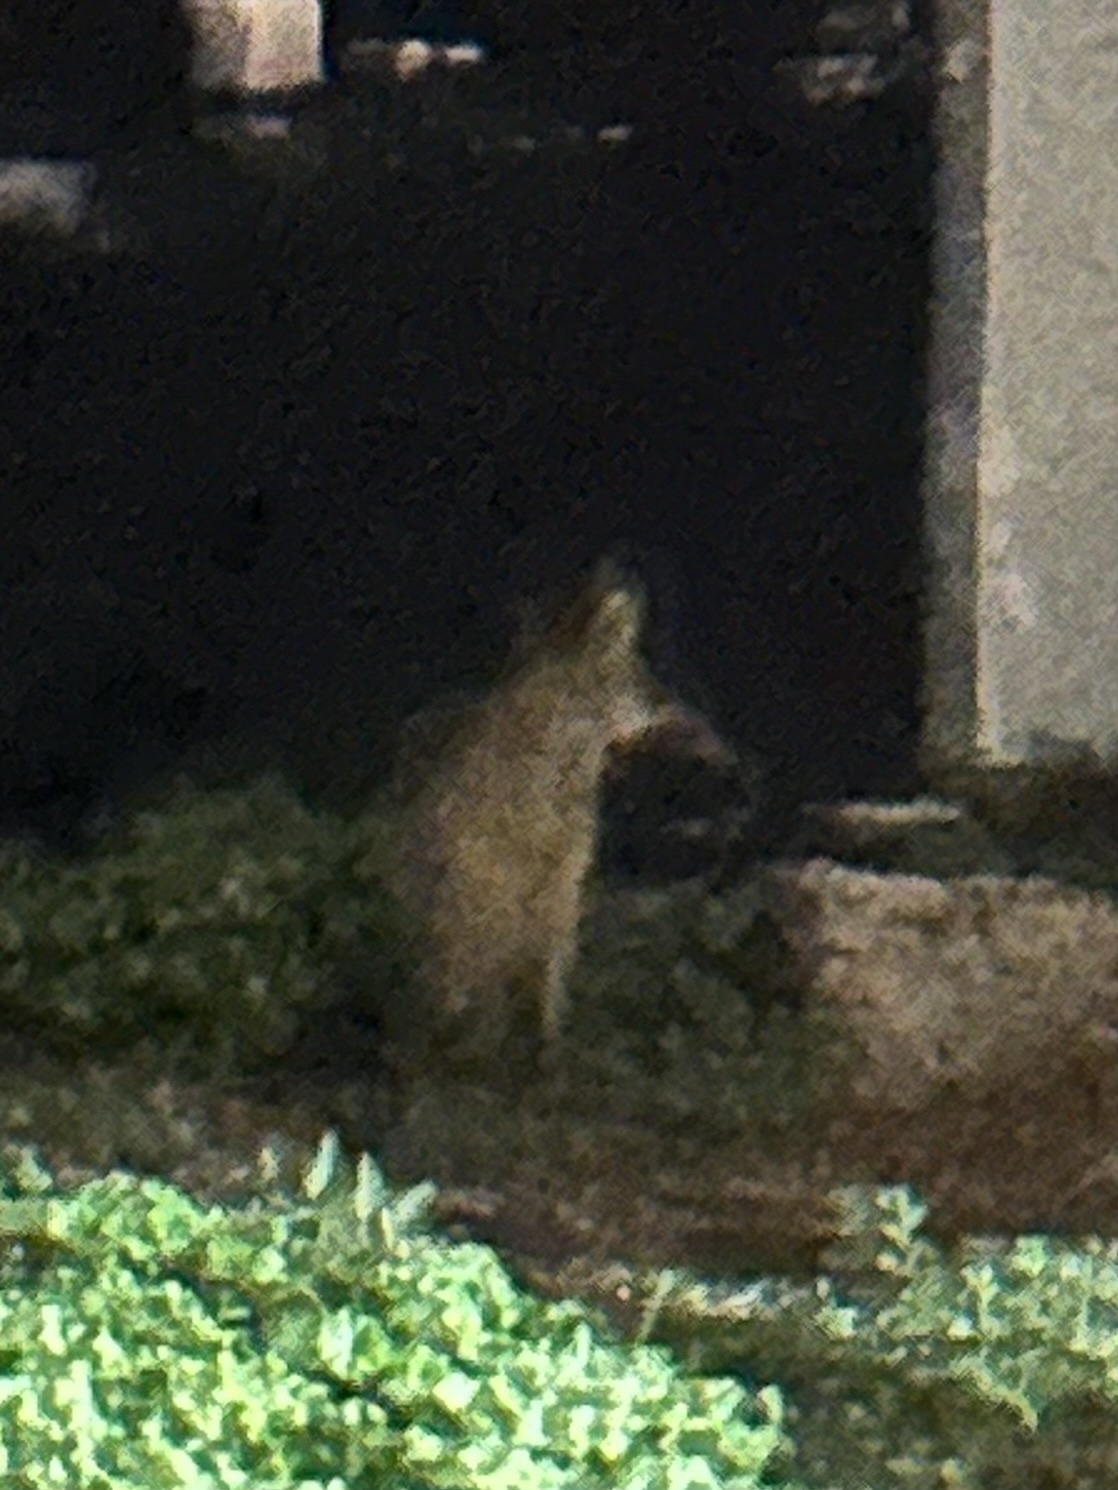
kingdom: Animalia
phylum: Chordata
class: Mammalia
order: Carnivora
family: Canidae
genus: Canis
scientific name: Canis latrans
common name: Coyote
